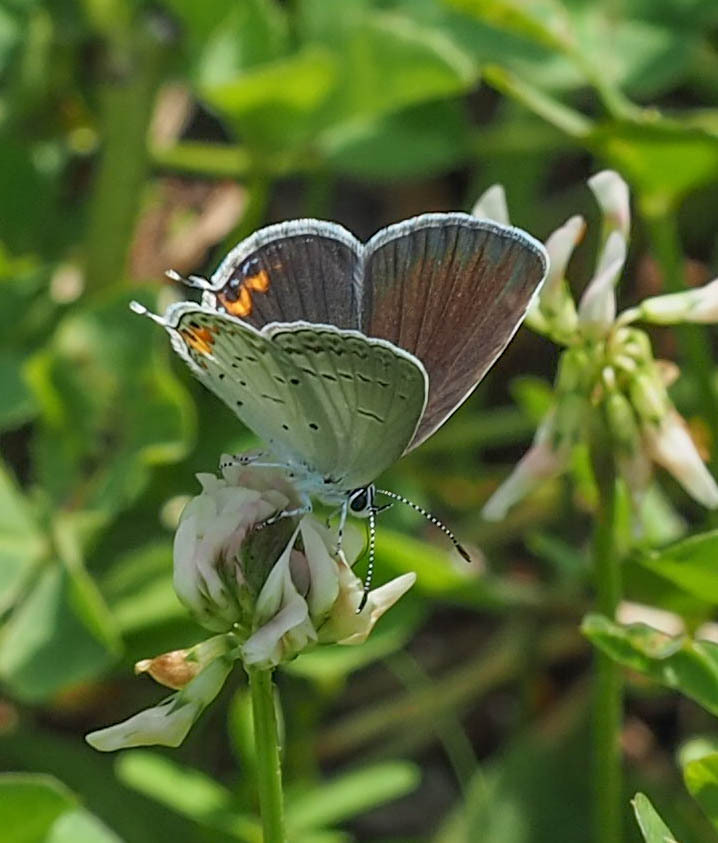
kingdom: Animalia
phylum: Arthropoda
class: Insecta
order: Lepidoptera
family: Lycaenidae
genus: Elkalyce
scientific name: Elkalyce comyntas
